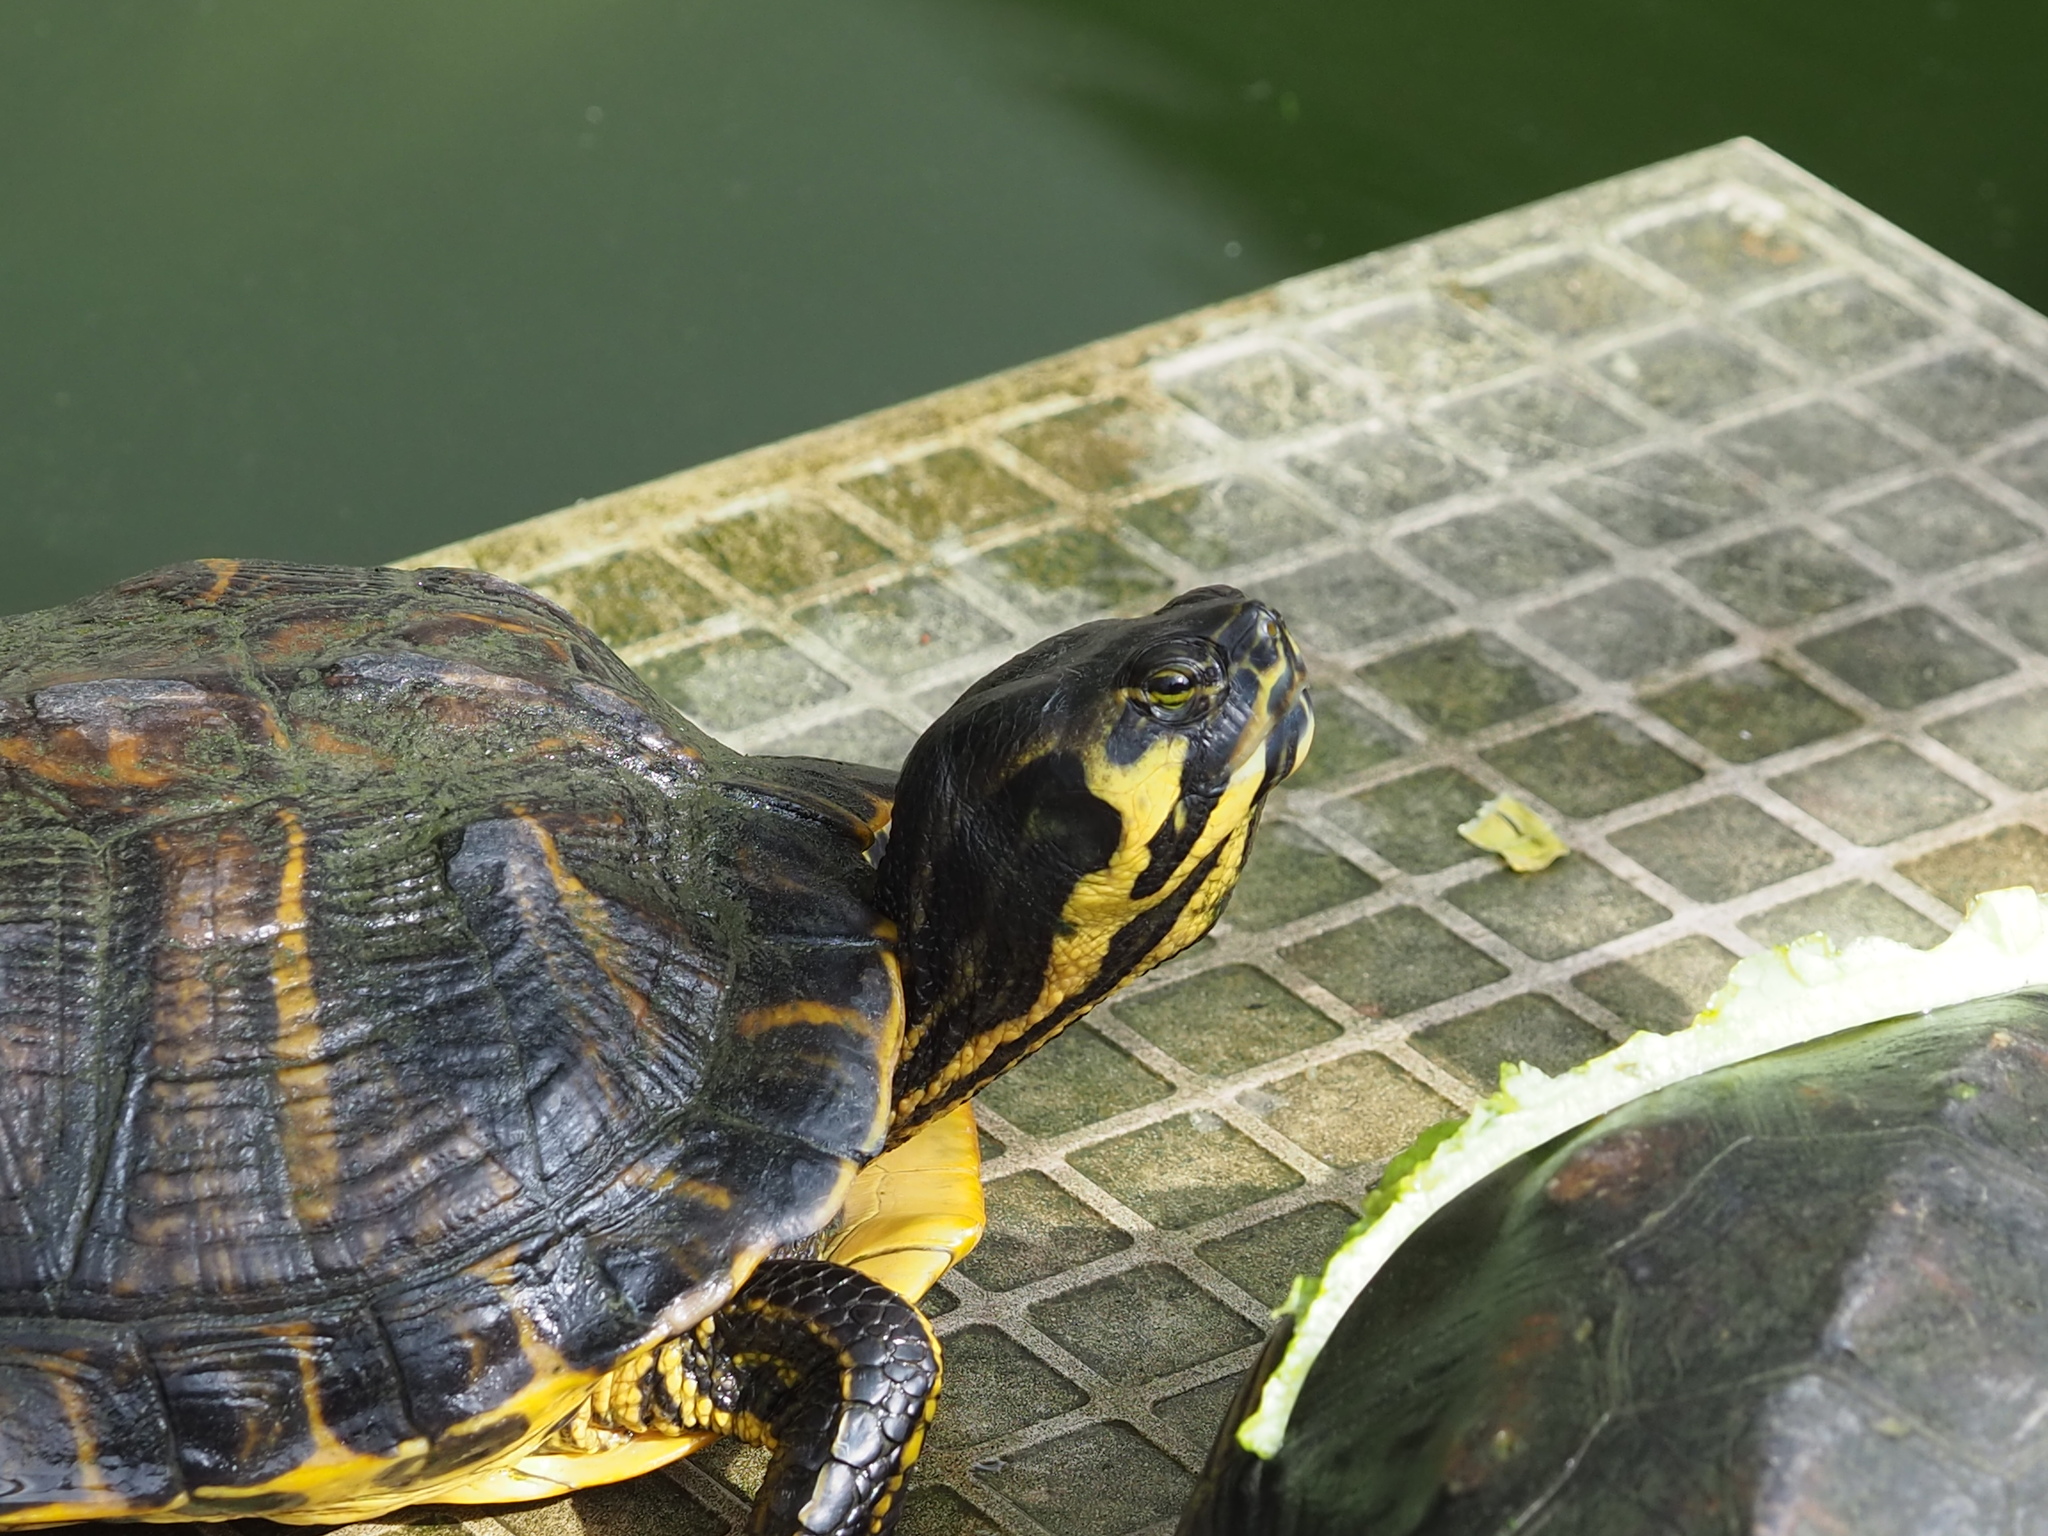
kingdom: Animalia
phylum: Chordata
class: Testudines
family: Emydidae
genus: Trachemys
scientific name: Trachemys scripta
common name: Slider
